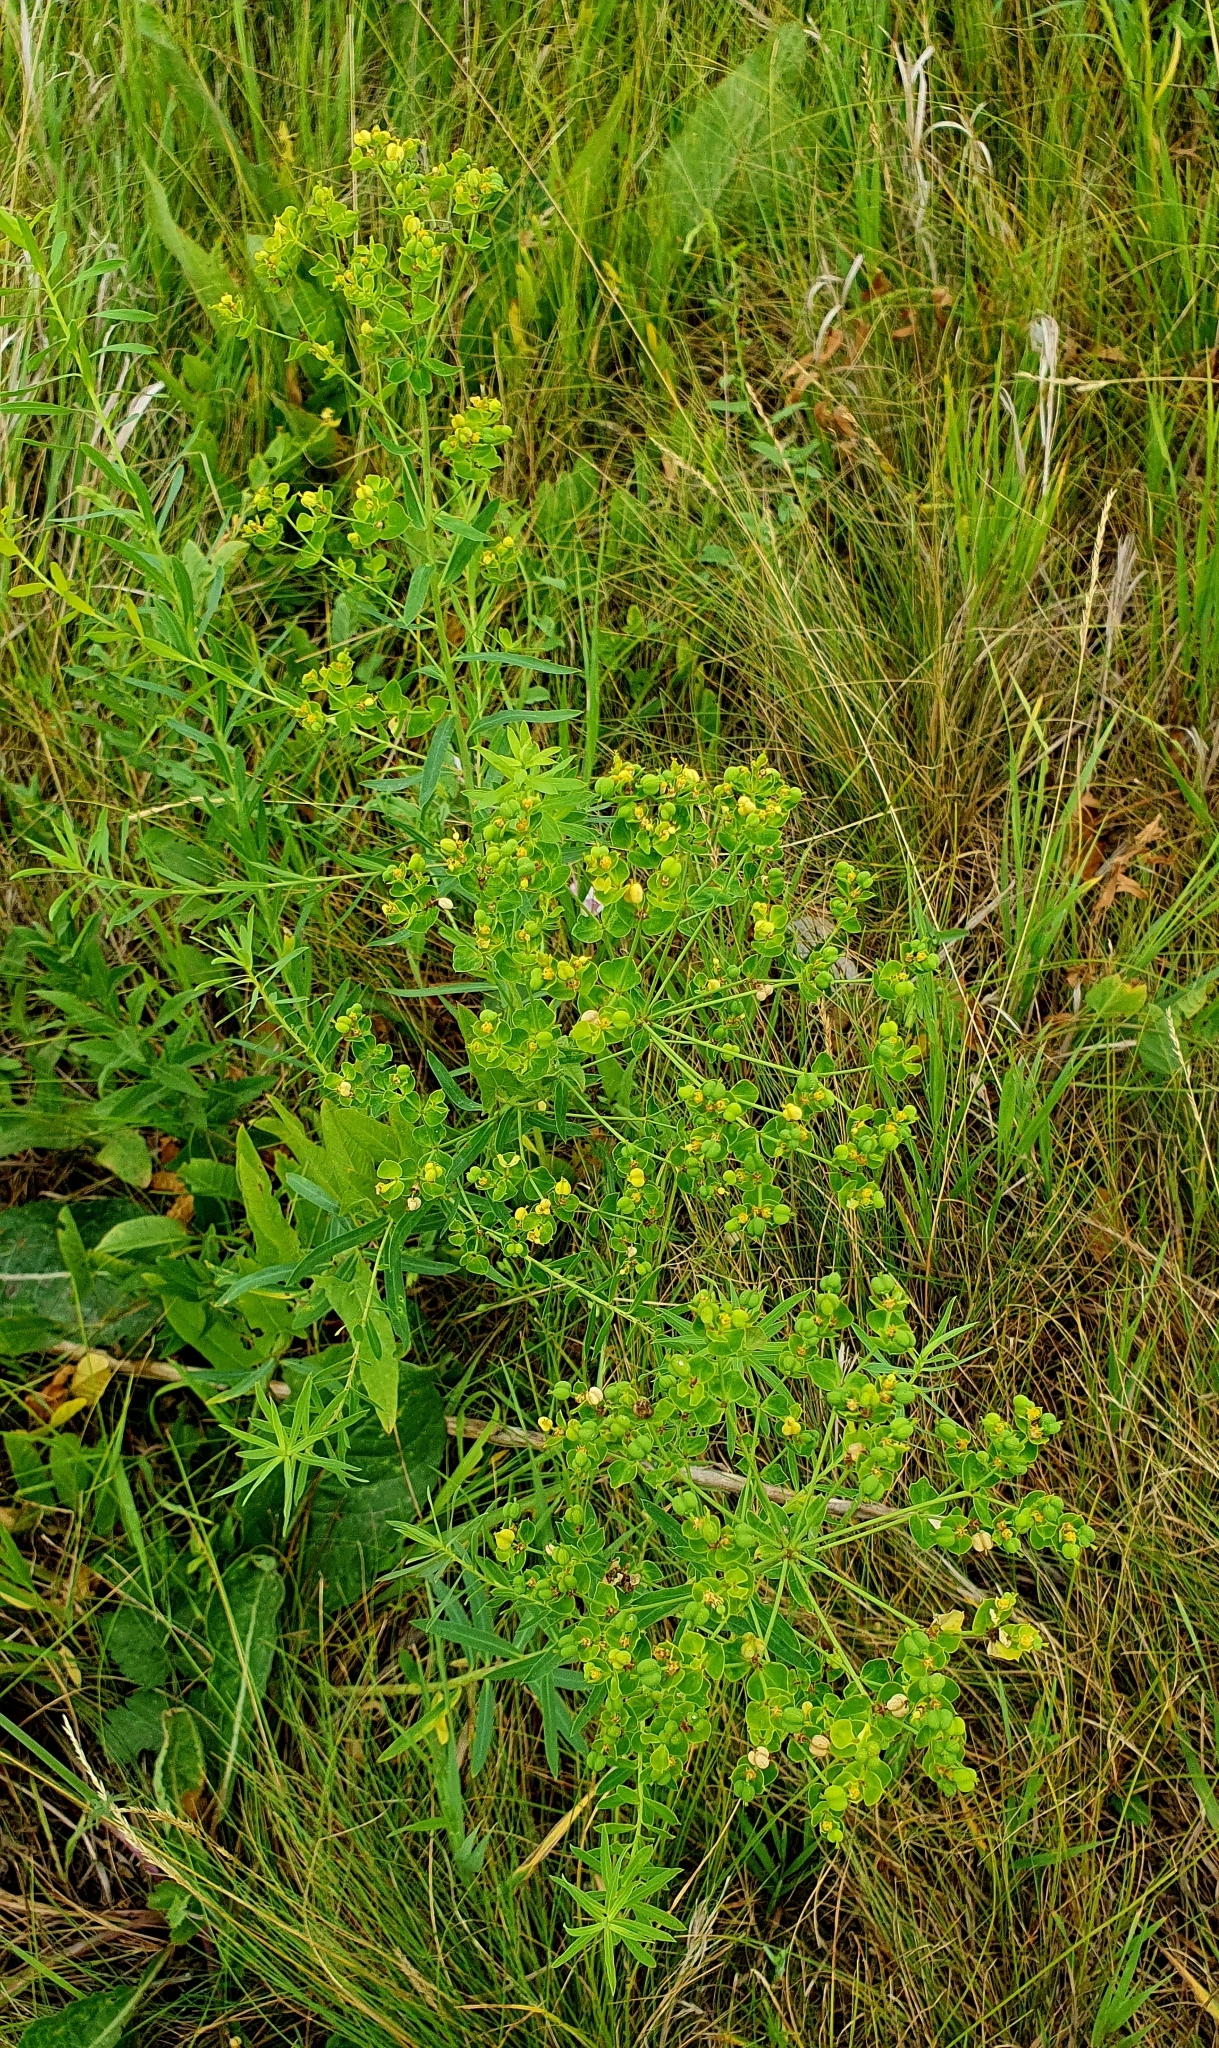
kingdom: Plantae
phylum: Tracheophyta
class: Magnoliopsida
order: Malpighiales
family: Euphorbiaceae
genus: Euphorbia
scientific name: Euphorbia virgata
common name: Leafy spurge
